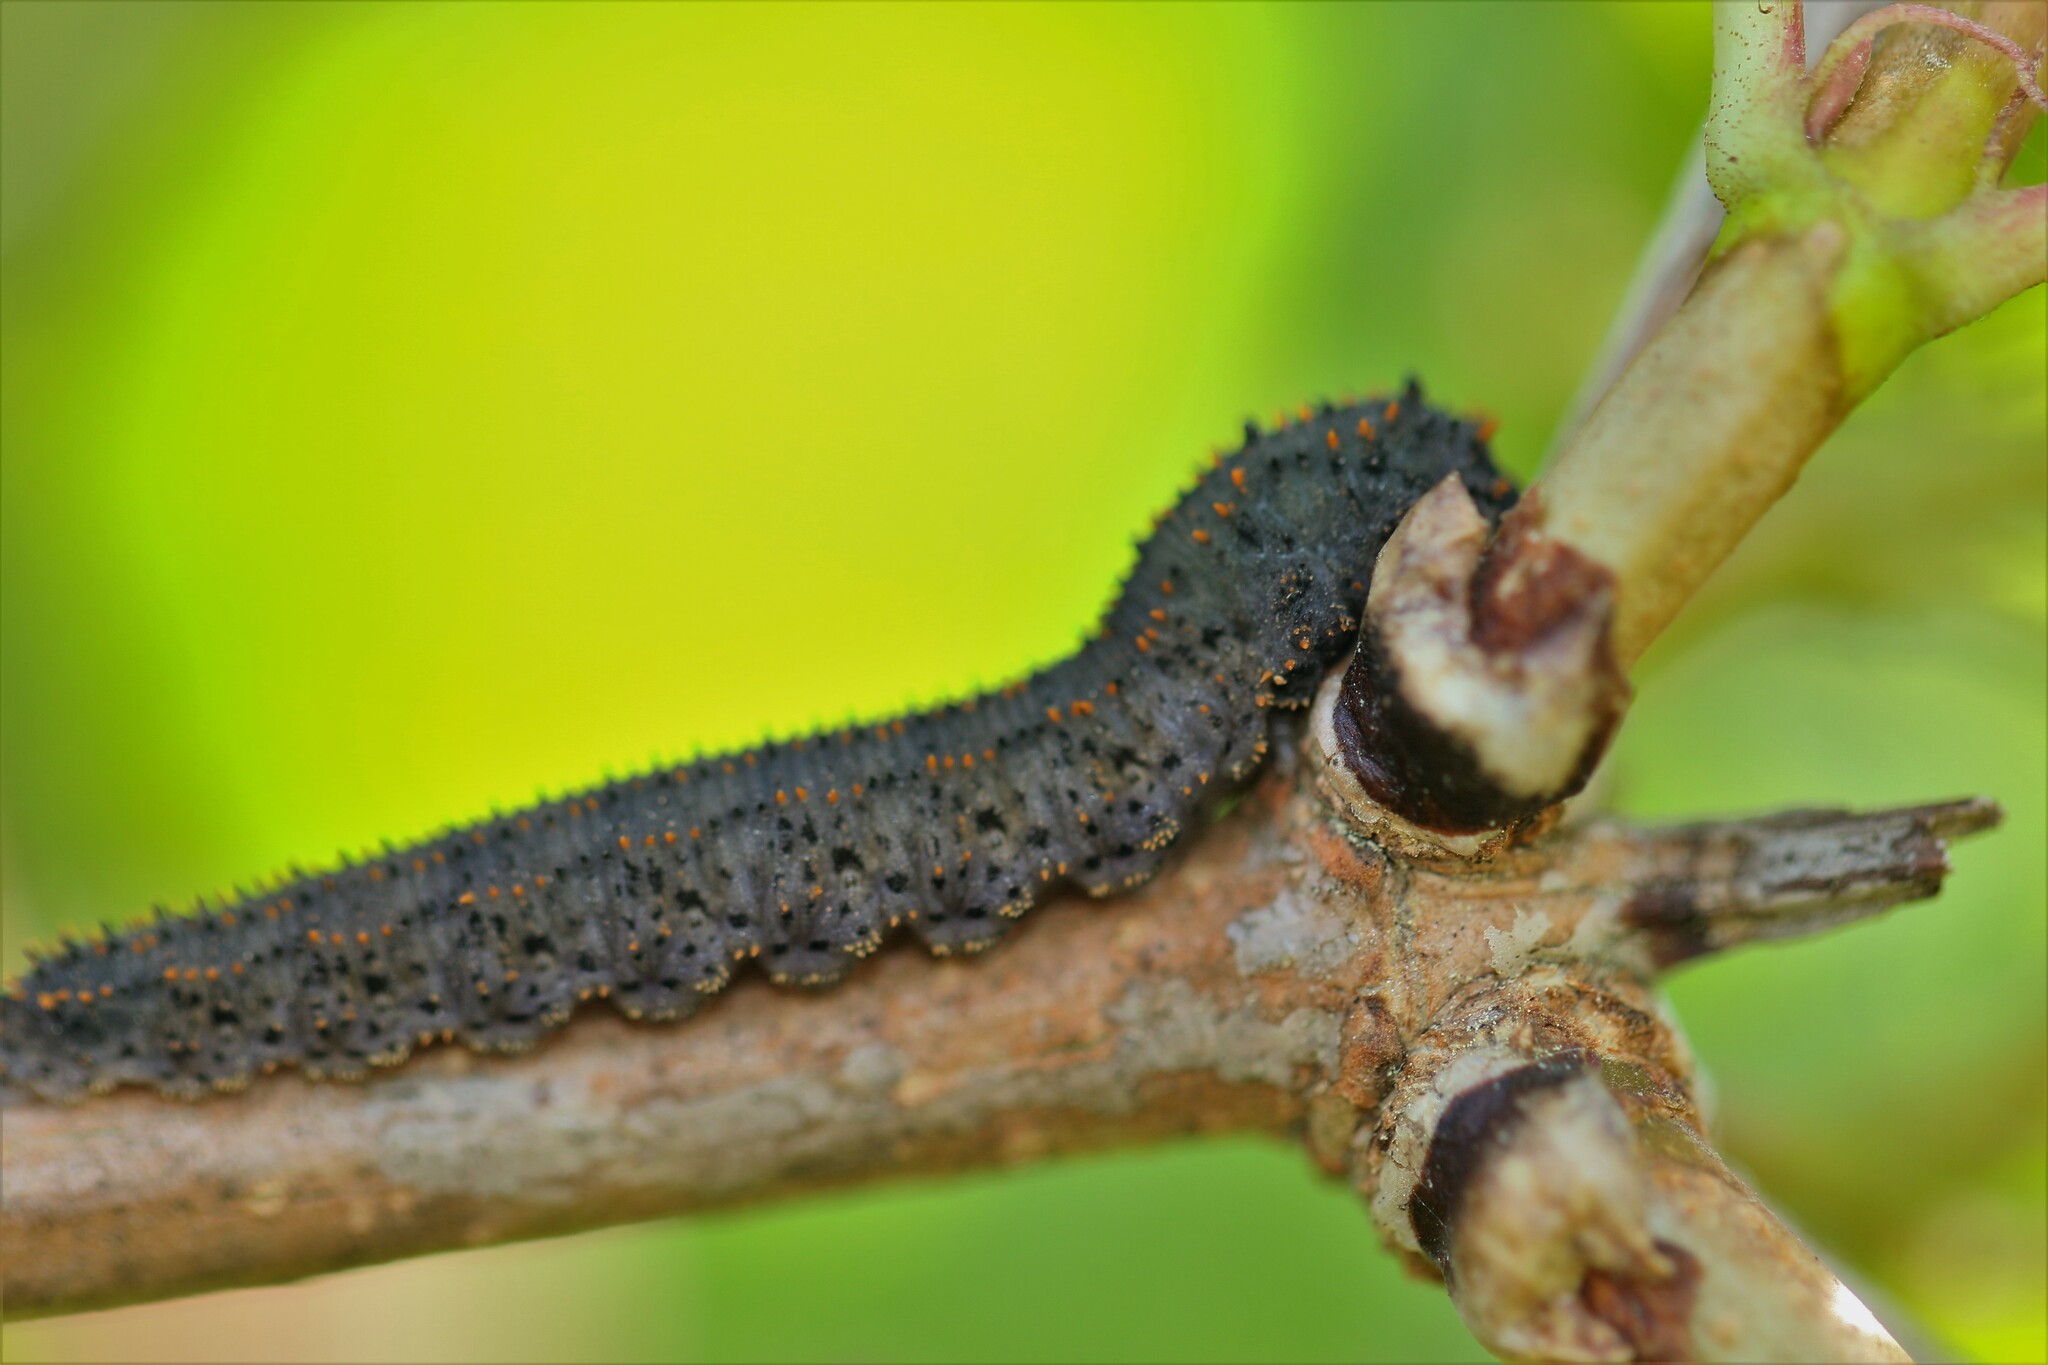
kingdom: Animalia
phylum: Arthropoda
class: Insecta
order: Hymenoptera
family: Tenthredinidae
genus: Lagium
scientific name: Lagium atroviolaceum
